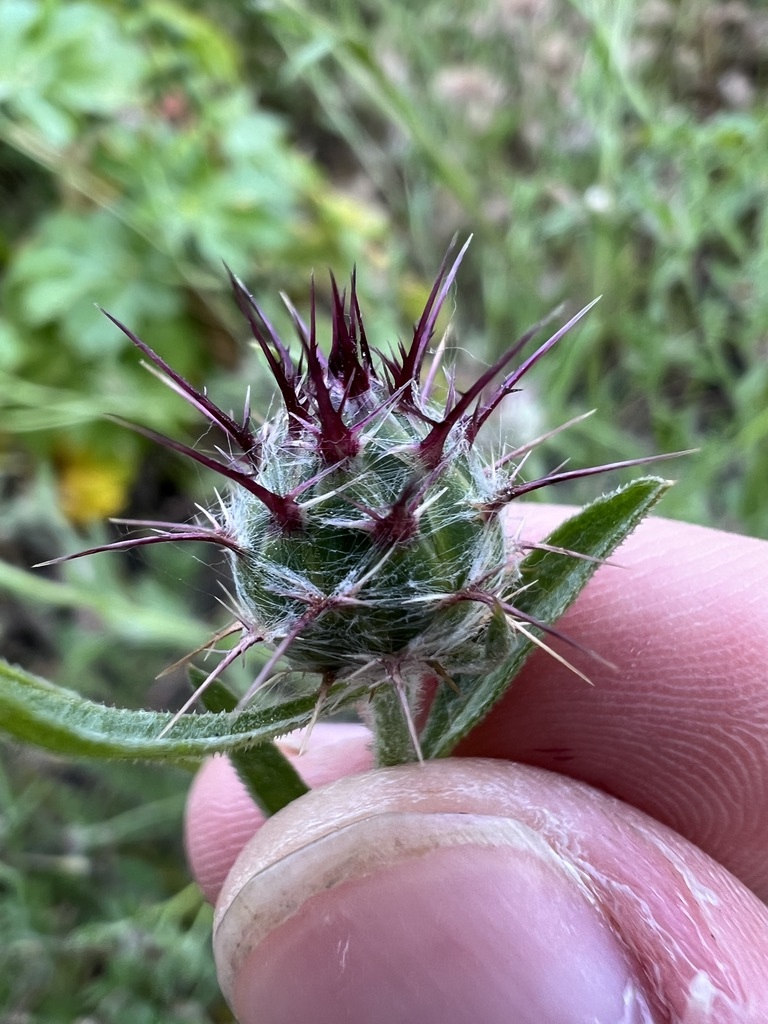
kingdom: Plantae
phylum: Tracheophyta
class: Magnoliopsida
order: Asterales
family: Asteraceae
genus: Centaurea
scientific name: Centaurea melitensis
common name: Maltese star-thistle
